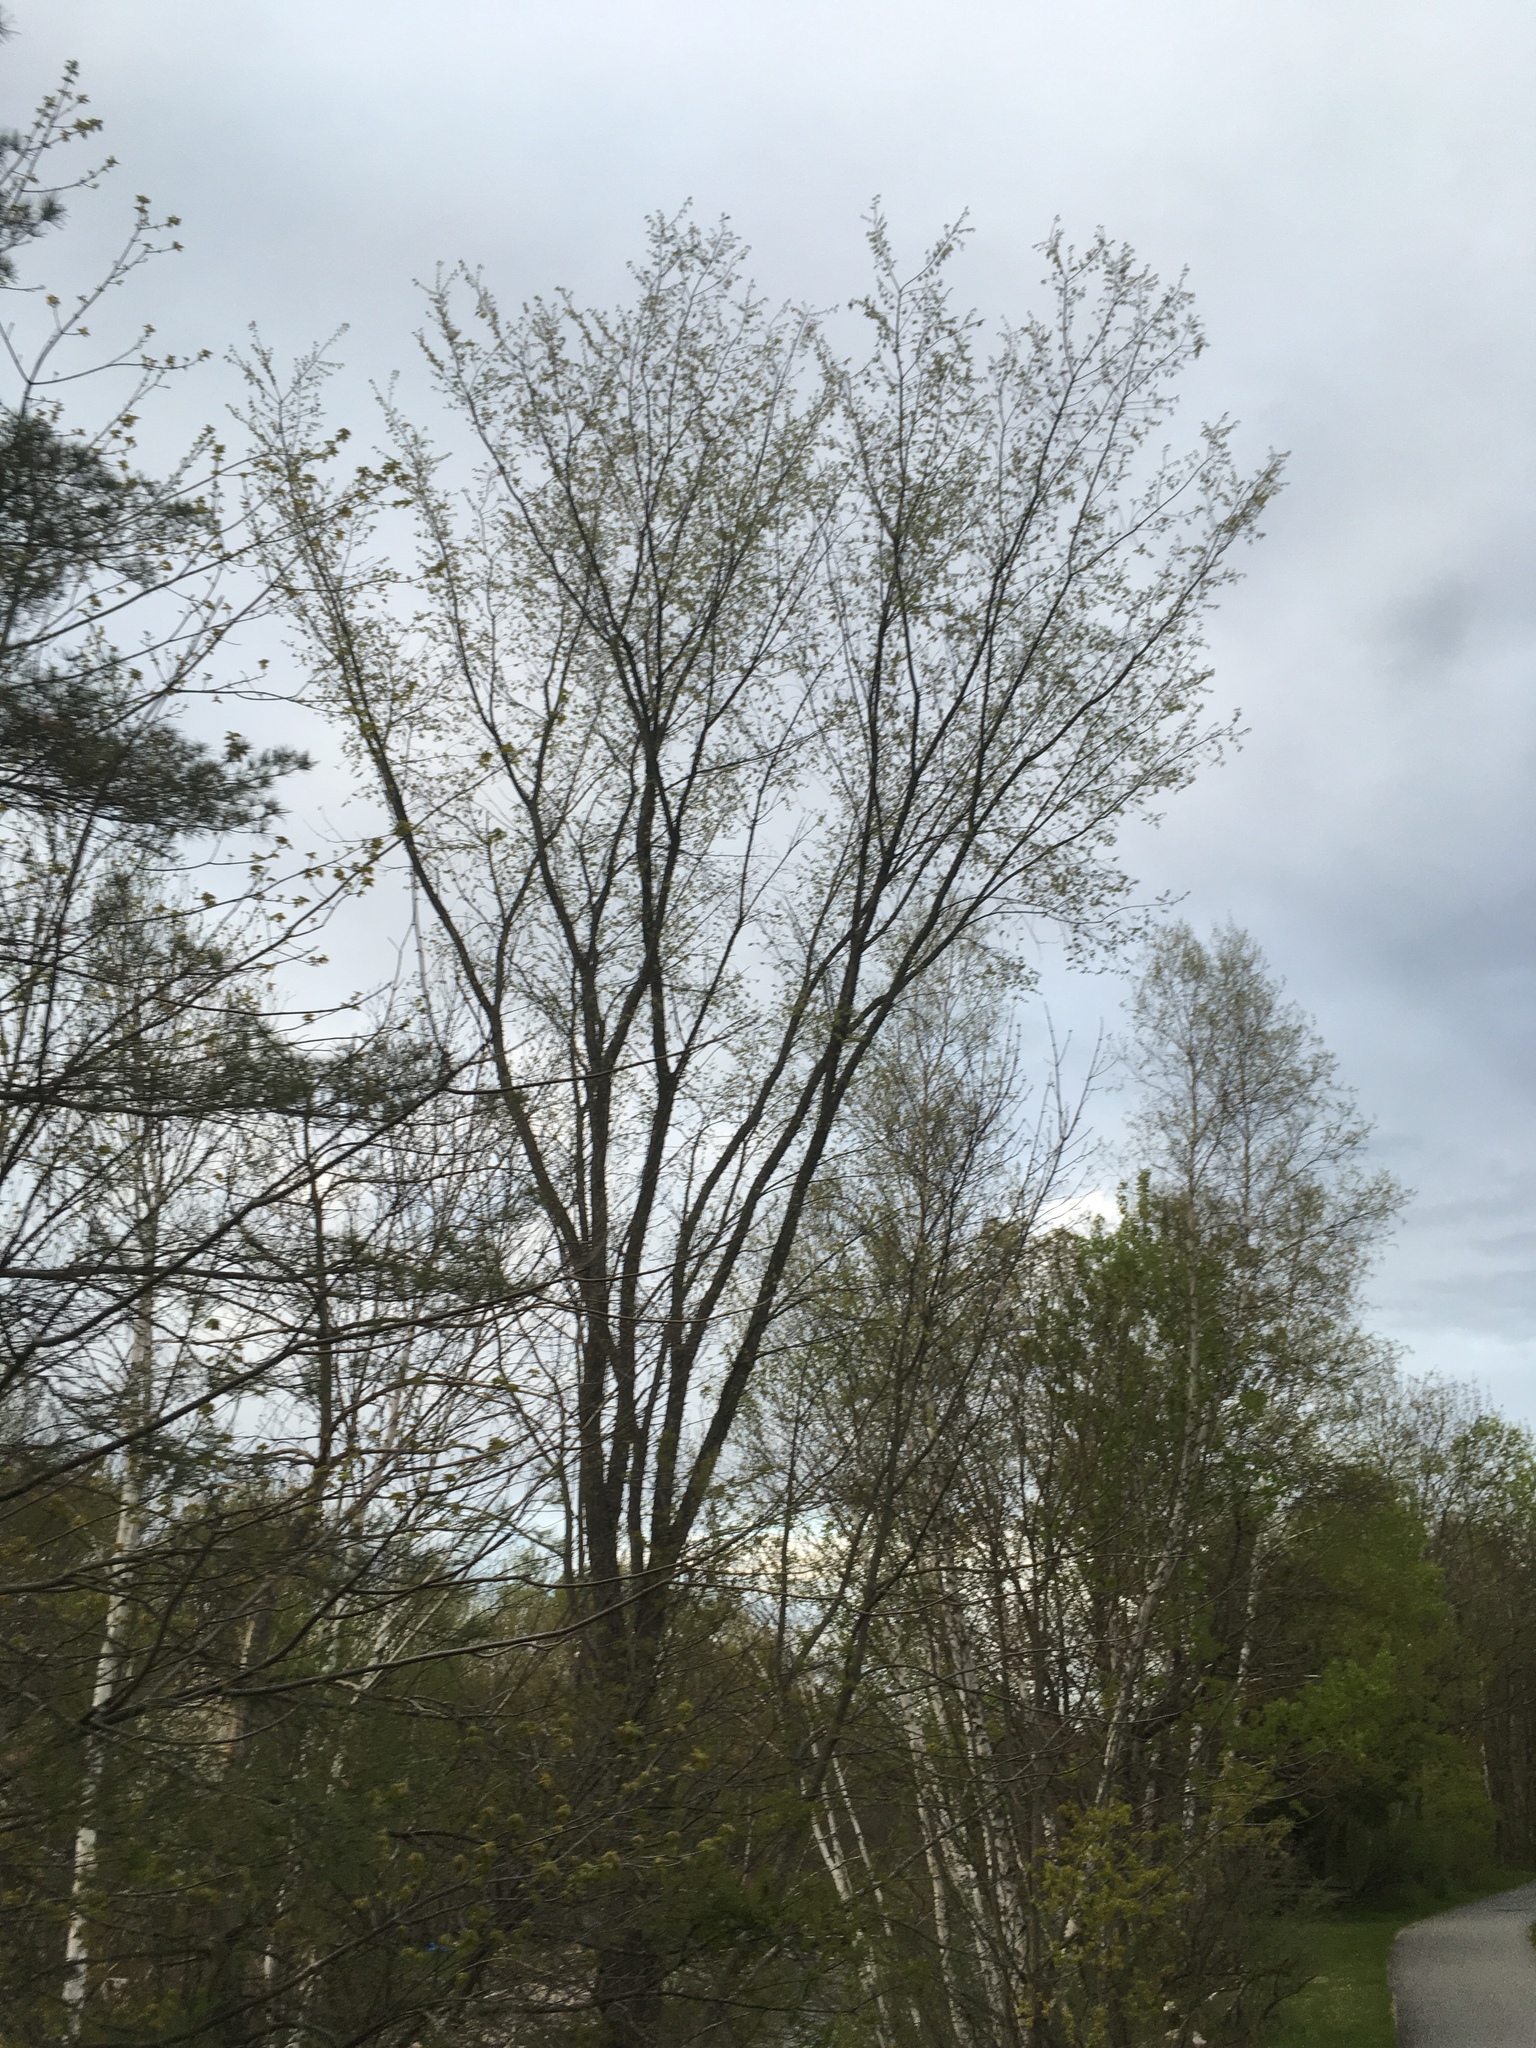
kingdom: Plantae
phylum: Tracheophyta
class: Magnoliopsida
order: Rosales
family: Ulmaceae
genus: Ulmus
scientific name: Ulmus americana
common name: American elm
